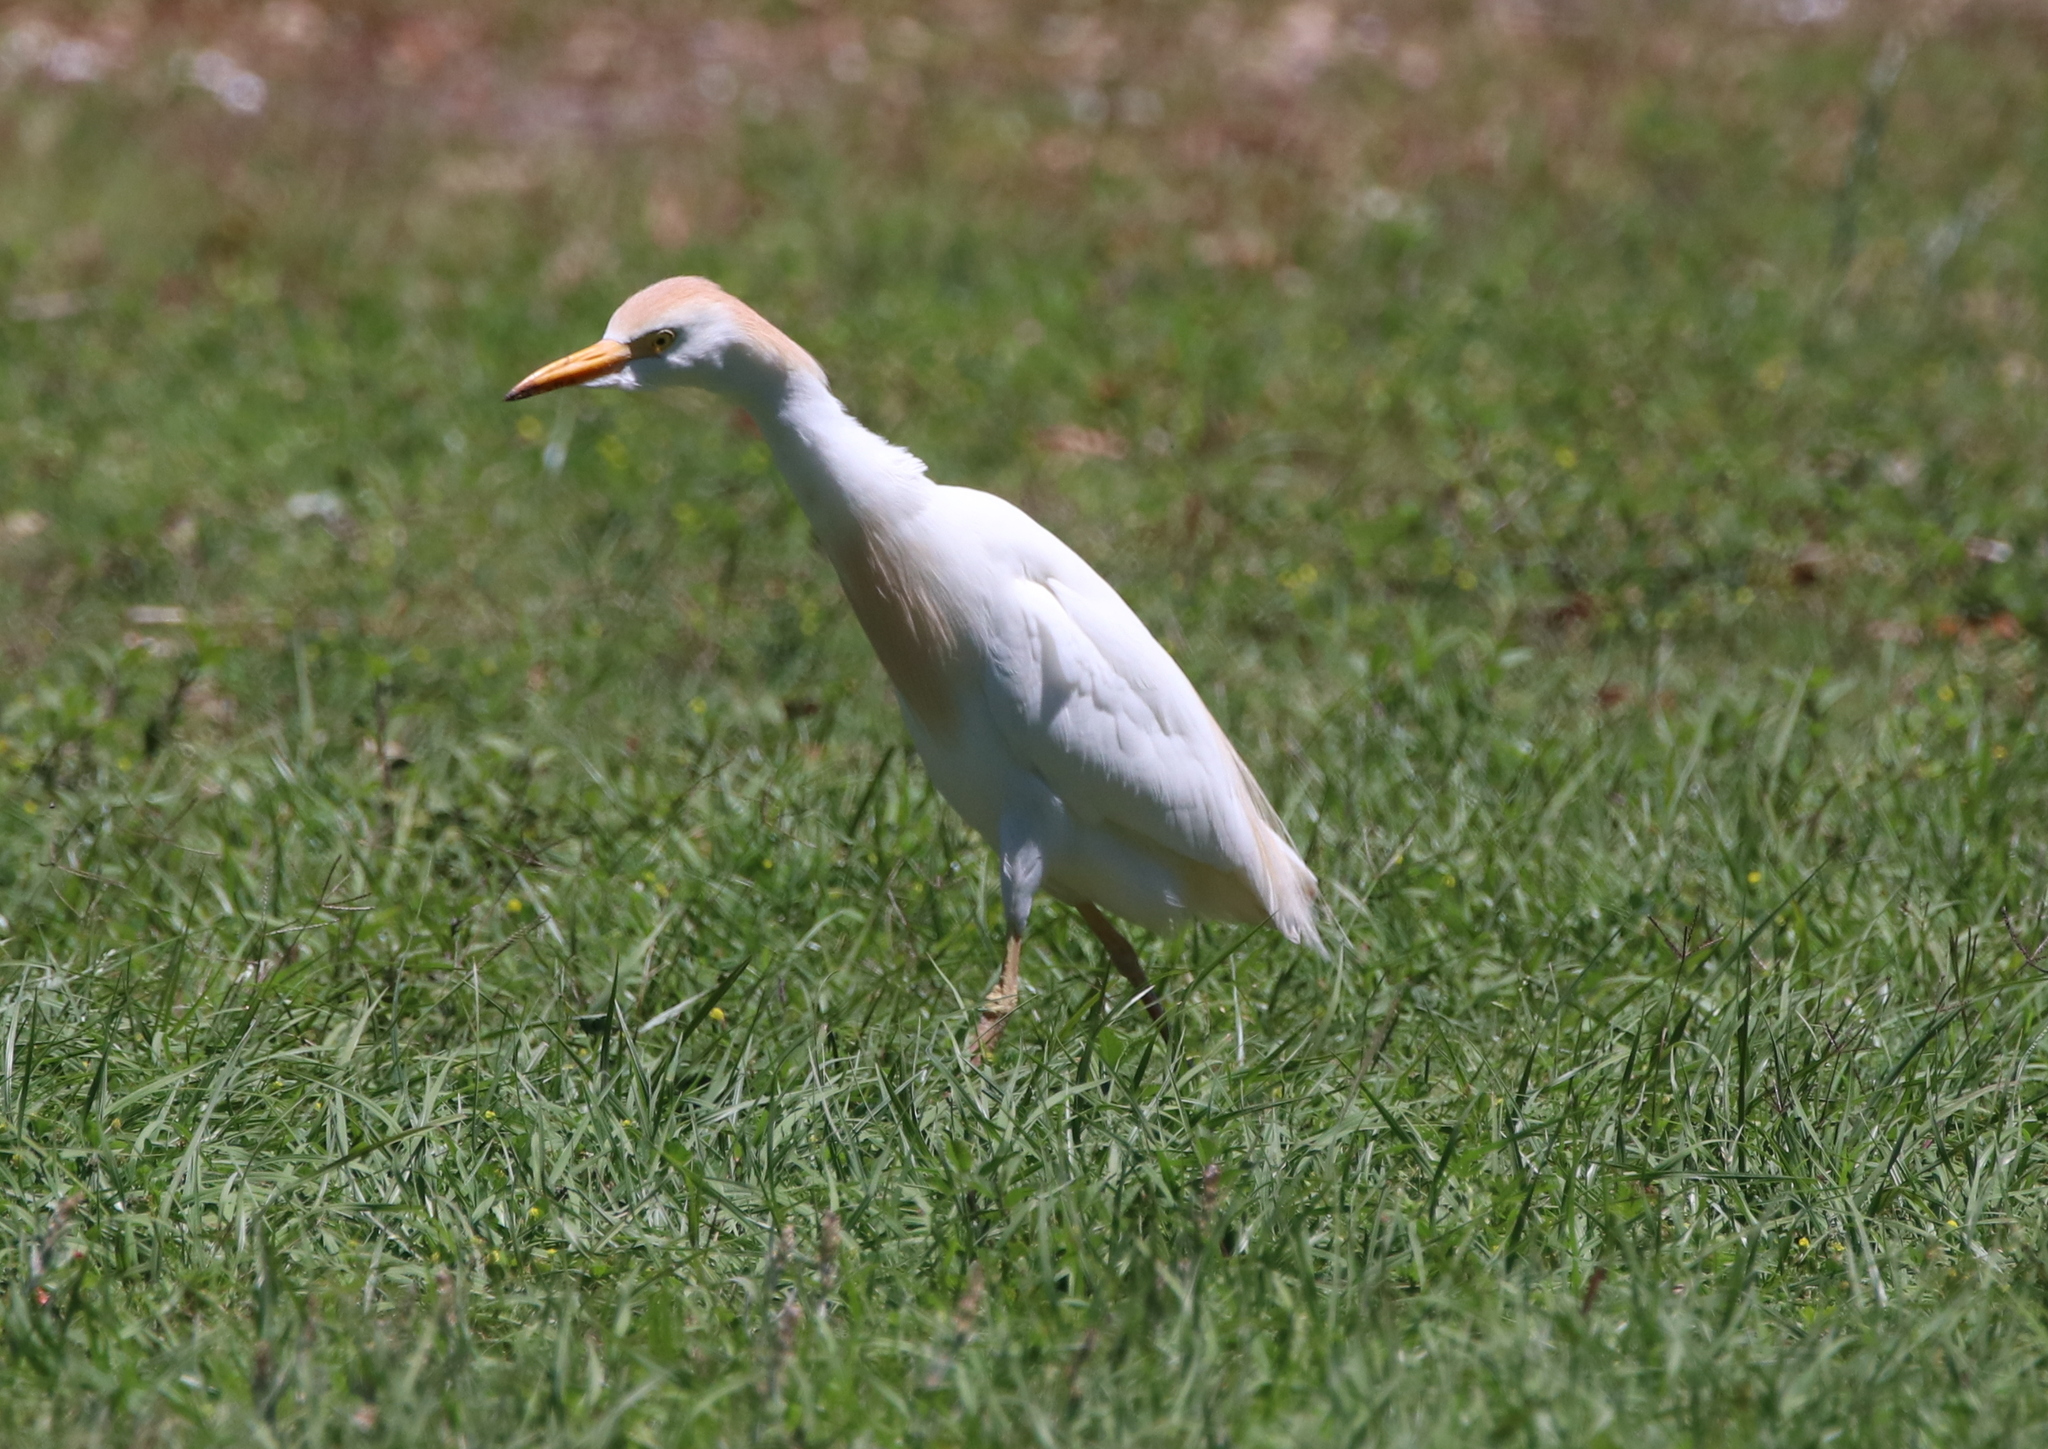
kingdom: Animalia
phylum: Chordata
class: Aves
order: Pelecaniformes
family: Ardeidae
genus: Bubulcus
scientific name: Bubulcus ibis
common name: Cattle egret
